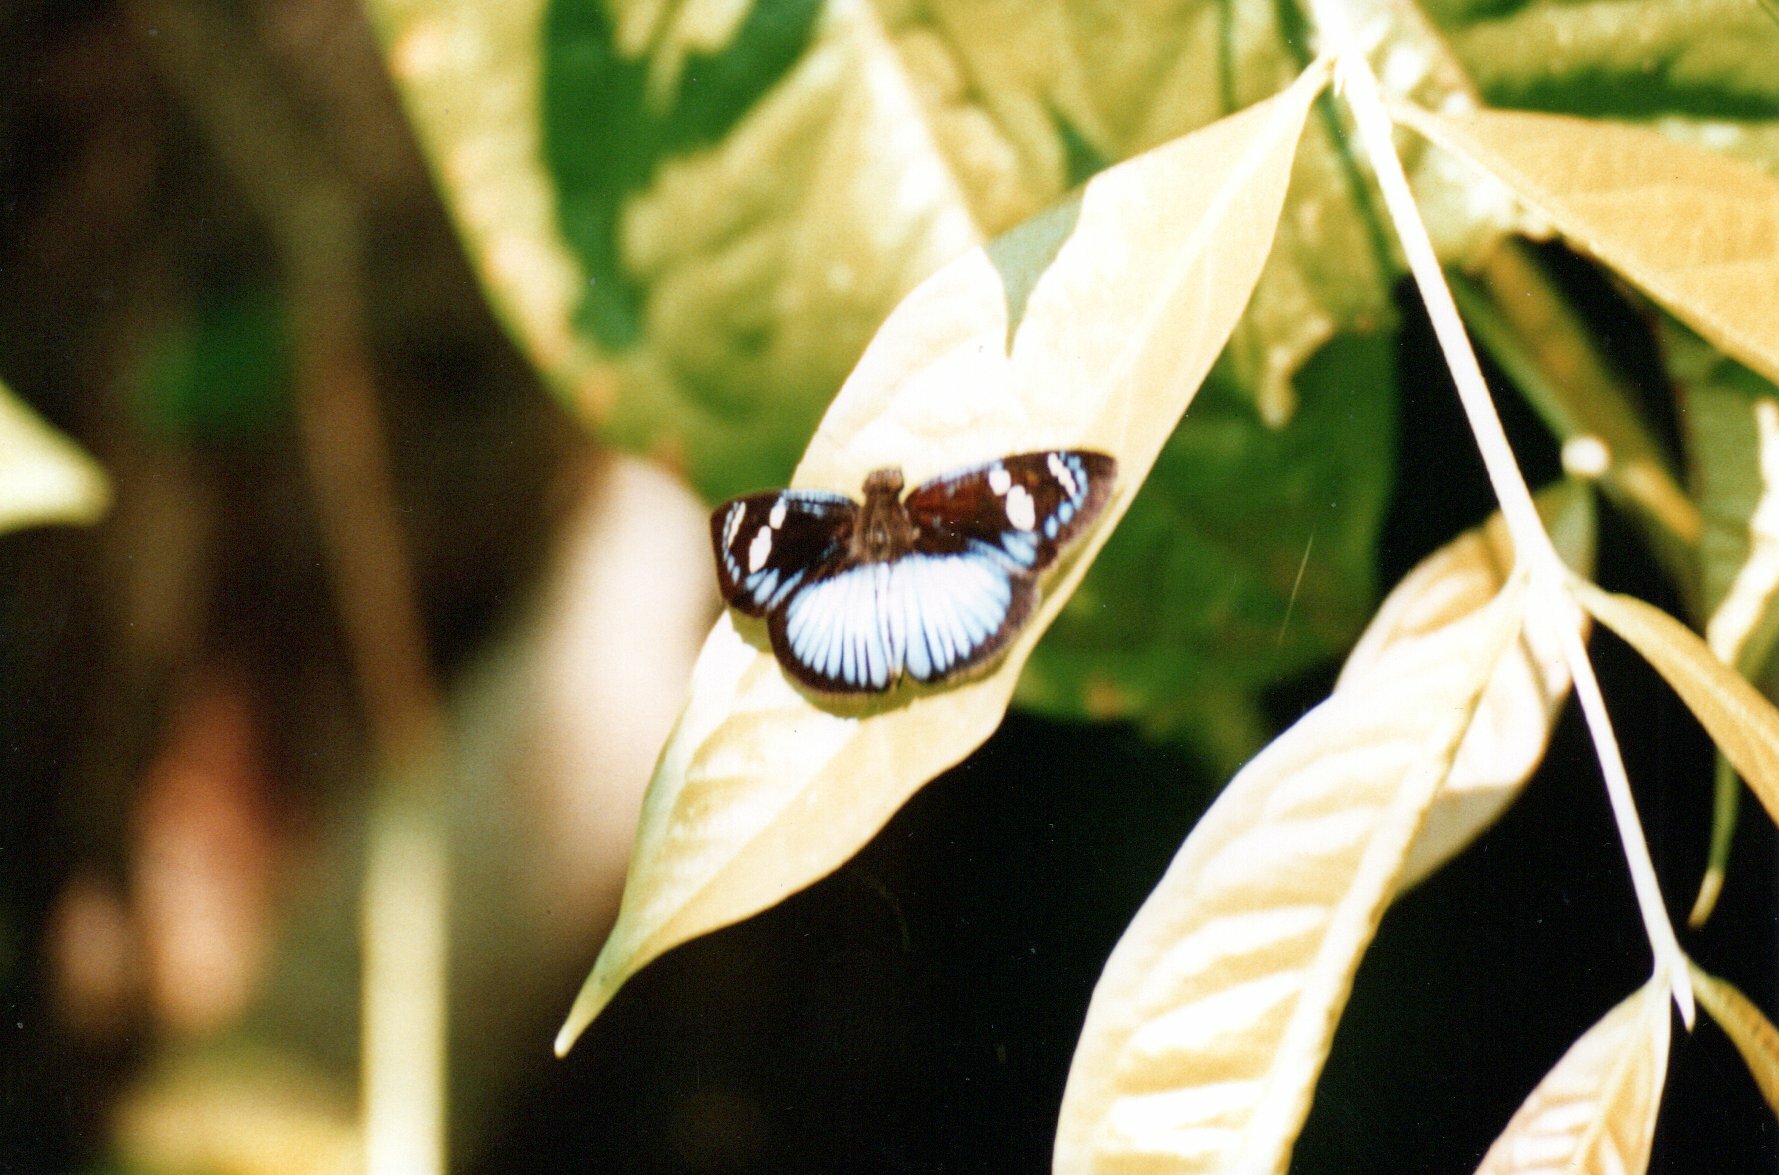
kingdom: Animalia
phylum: Arthropoda
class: Insecta
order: Lepidoptera
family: Hesperiidae
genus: Pythonides
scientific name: Pythonides jovianus
